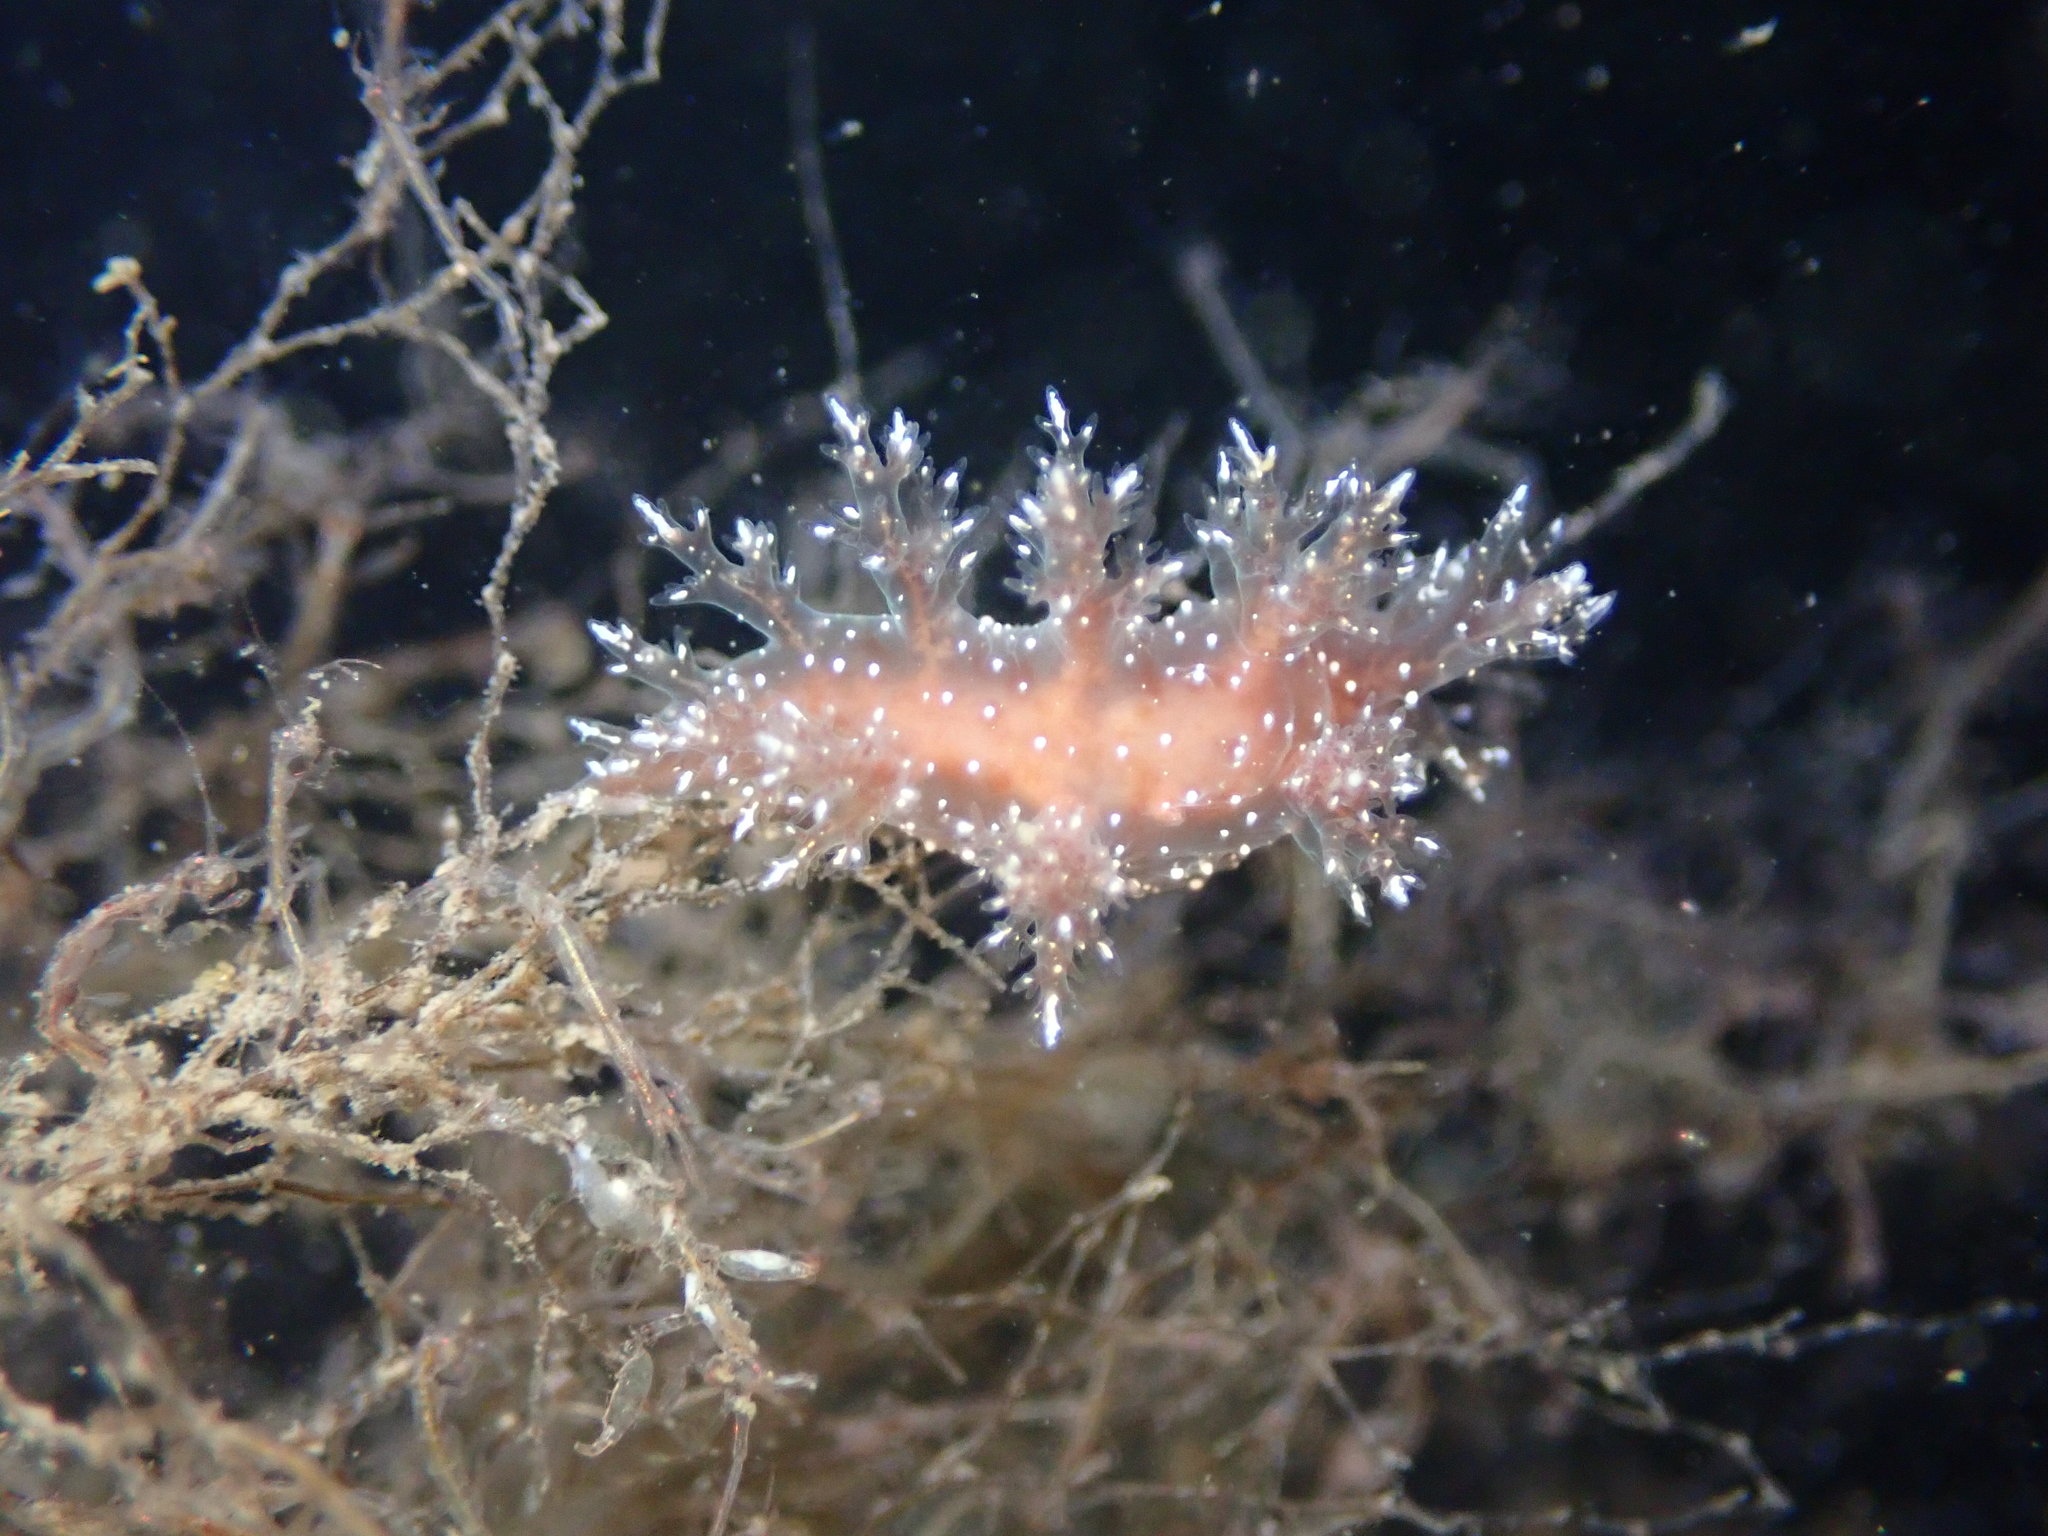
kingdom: Animalia
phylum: Mollusca
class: Gastropoda
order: Nudibranchia
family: Dendronotidae
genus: Dendronotus
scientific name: Dendronotus venustus
